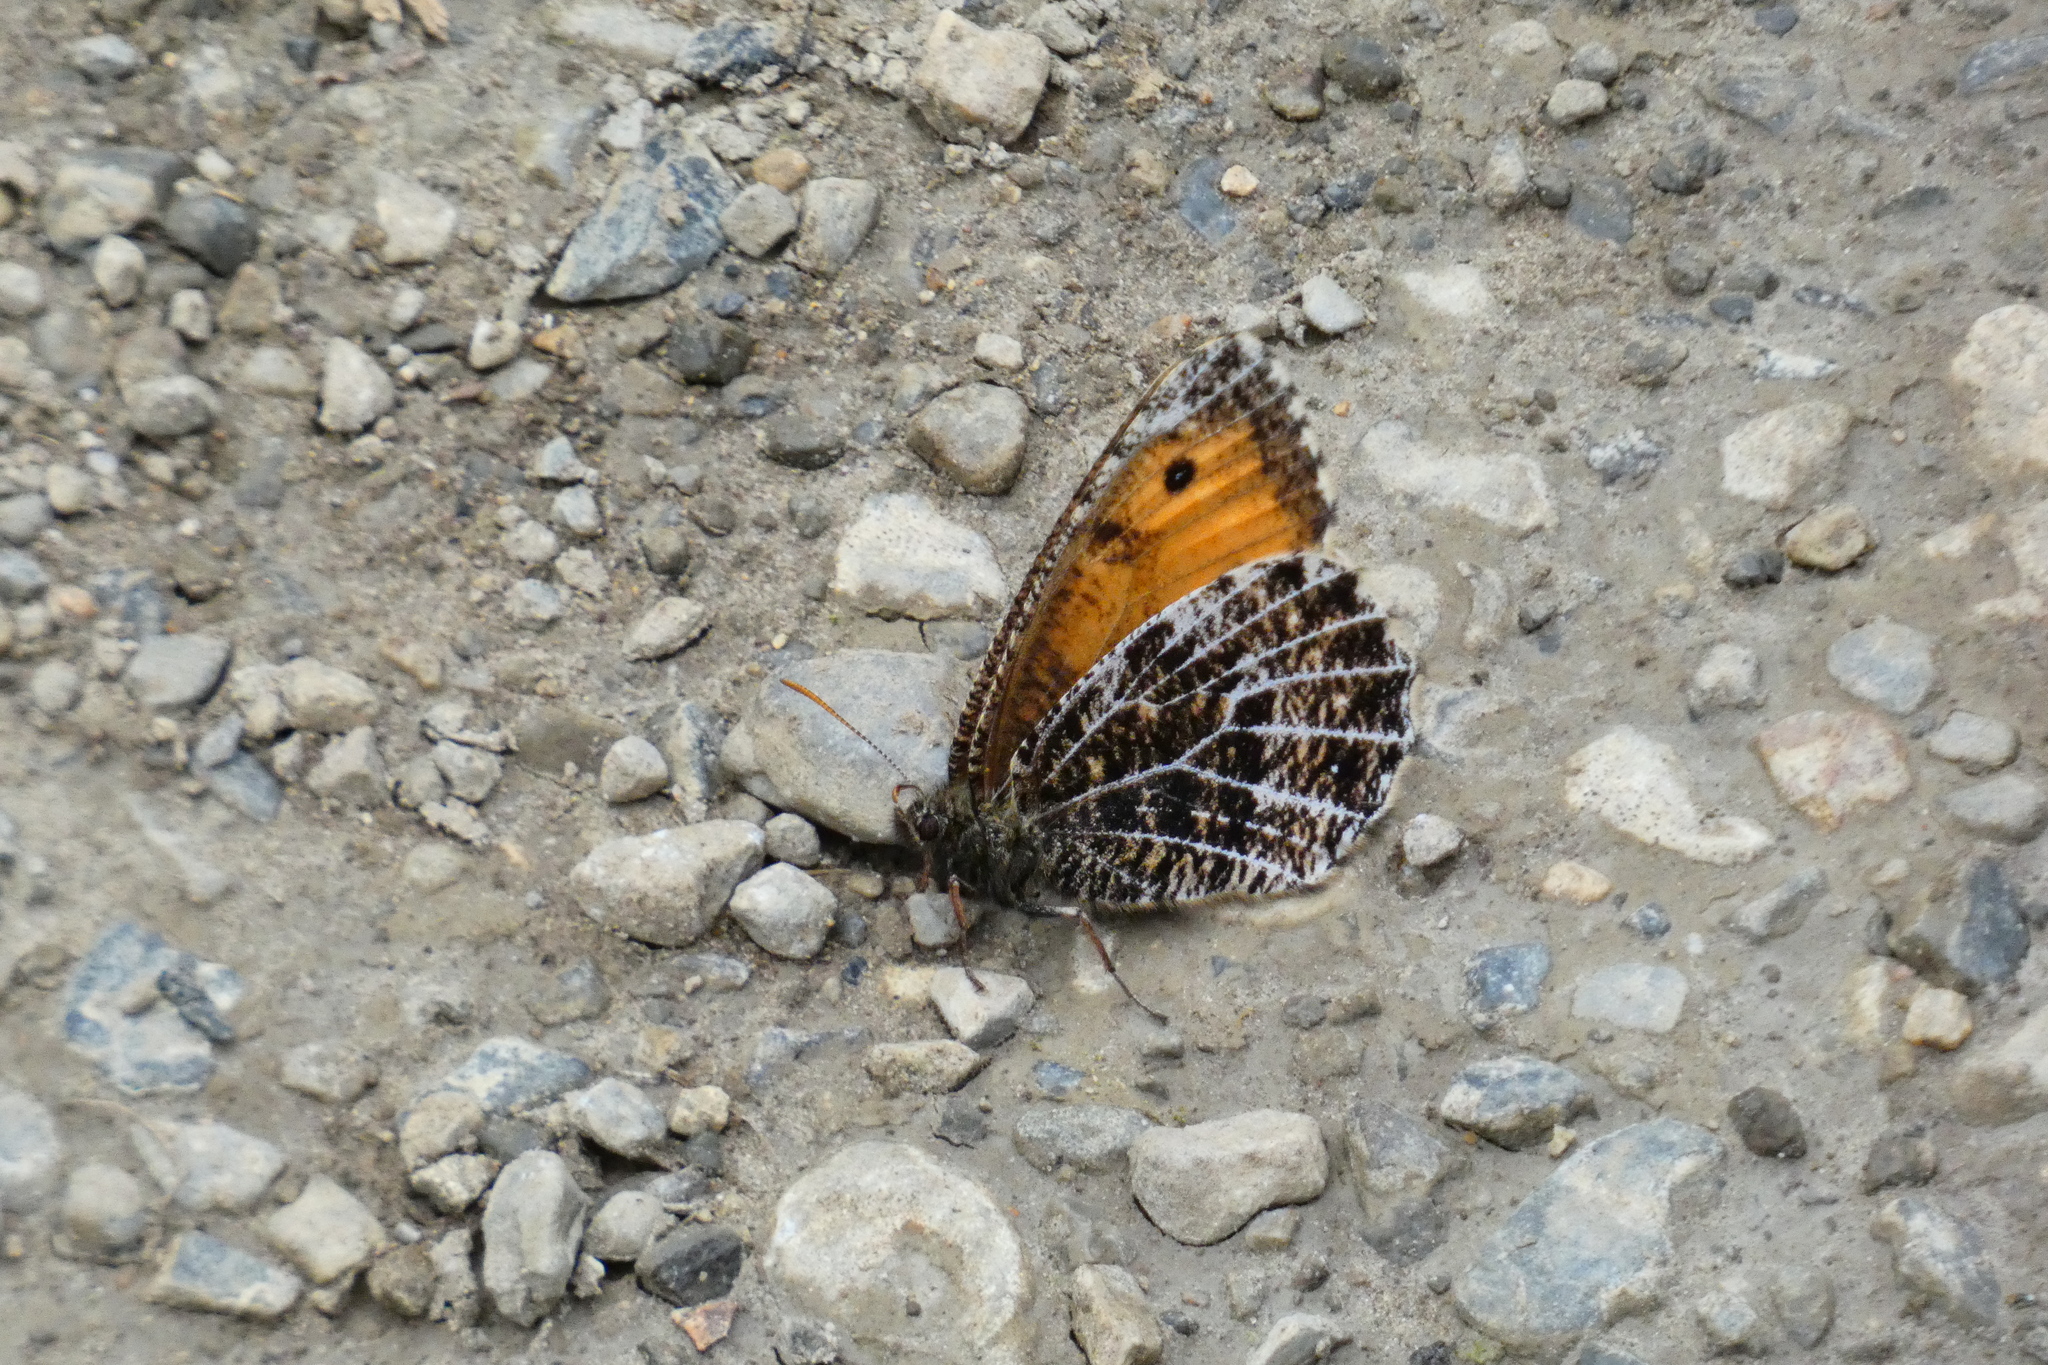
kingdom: Animalia
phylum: Arthropoda
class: Insecta
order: Lepidoptera
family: Nymphalidae
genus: Oeneis
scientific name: Oeneis aello
